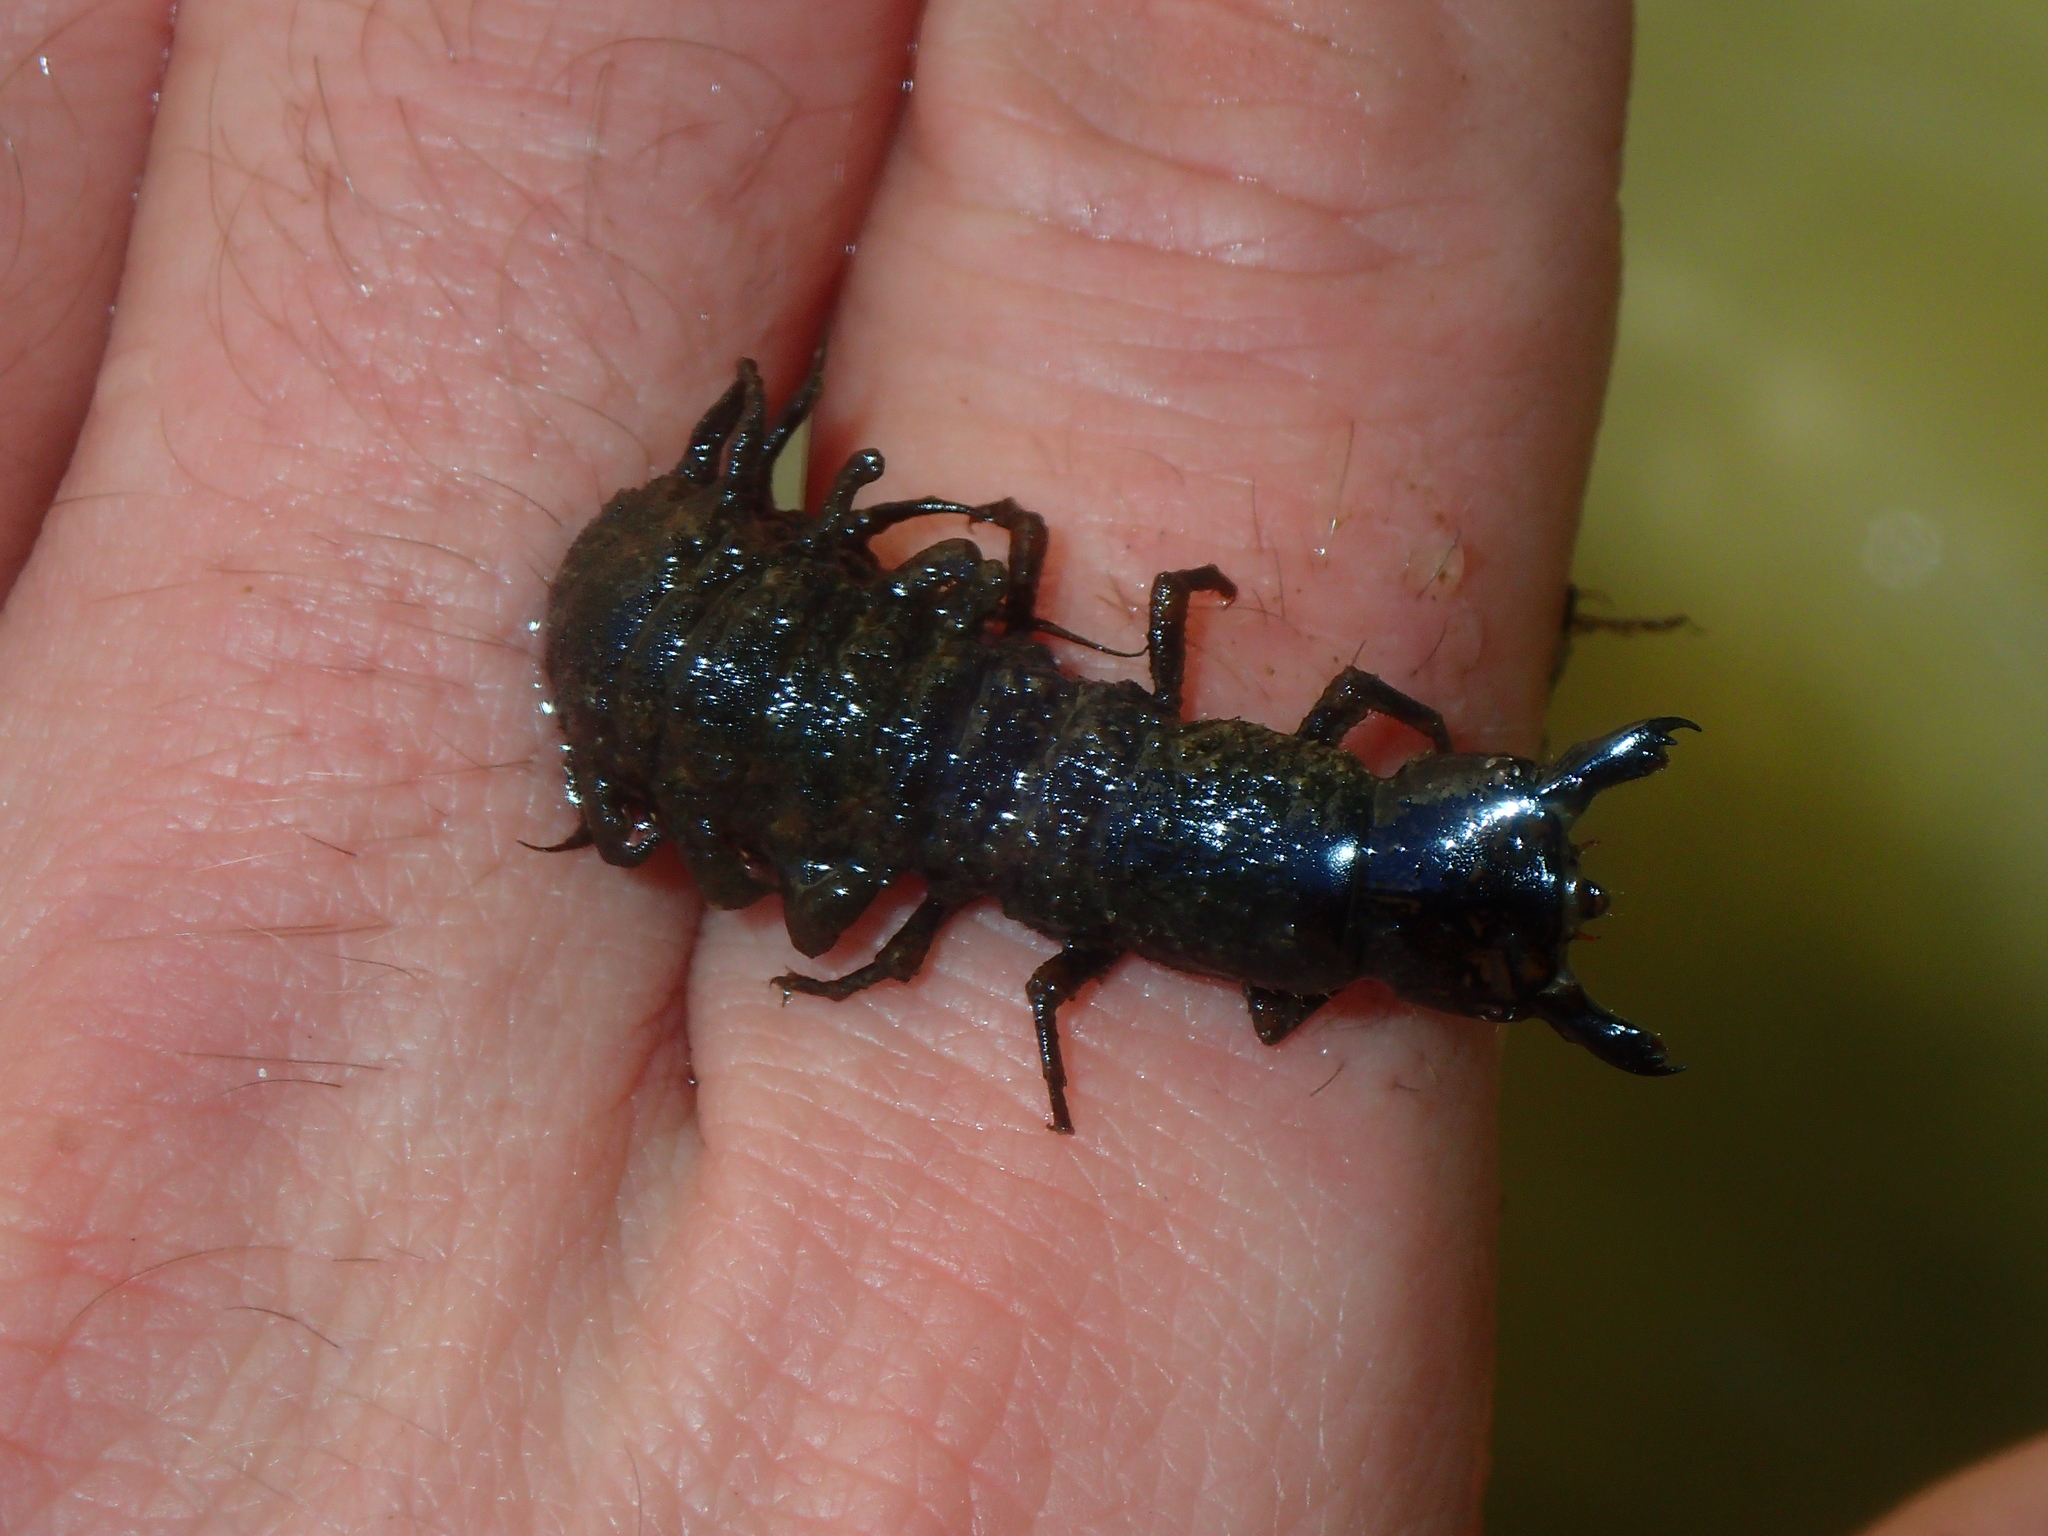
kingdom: Animalia
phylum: Arthropoda
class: Insecta
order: Megaloptera
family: Corydalidae
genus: Corydalus
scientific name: Corydalus cornutus
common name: Dobsonfly
